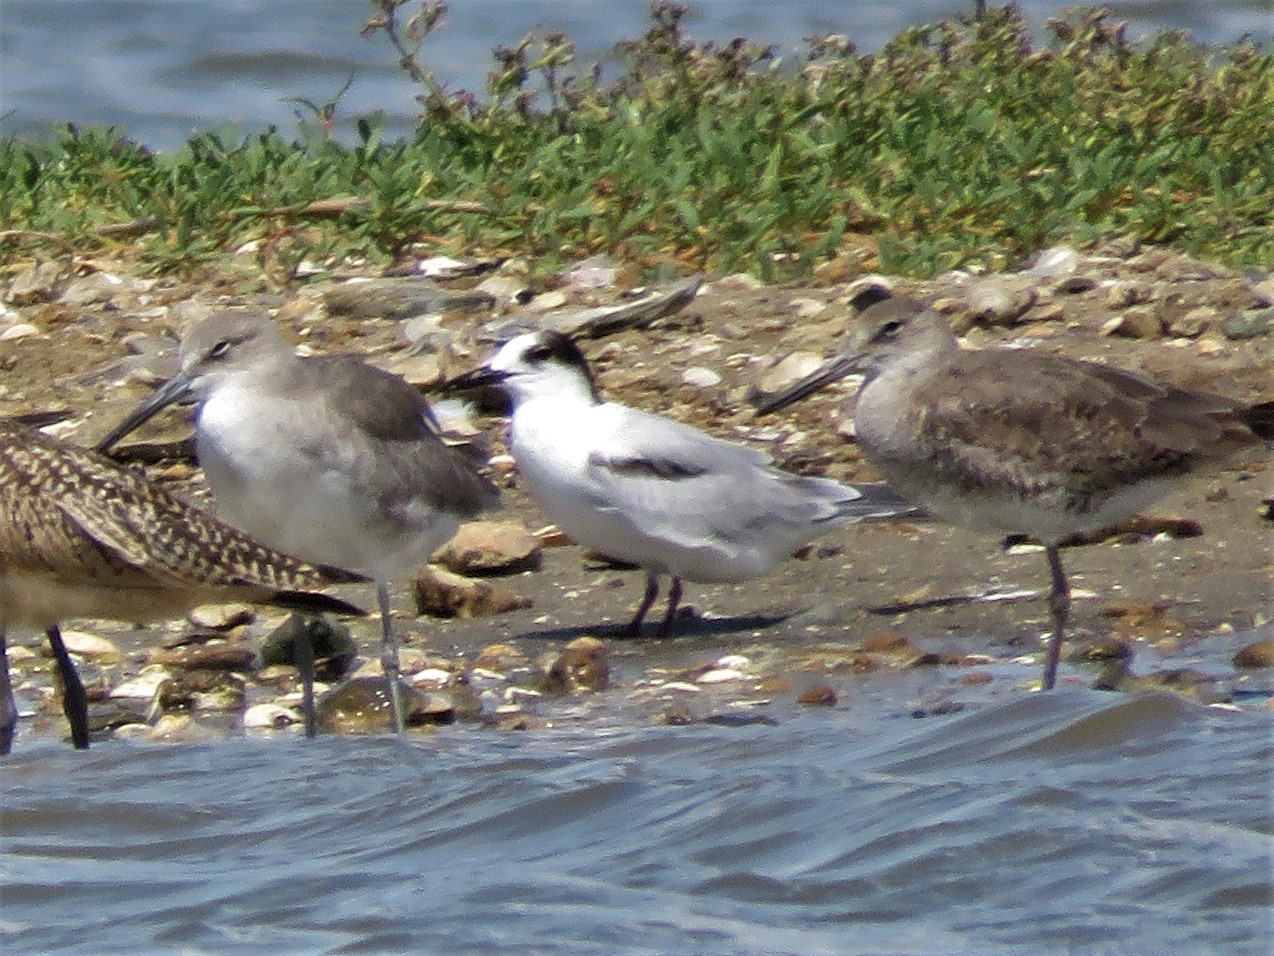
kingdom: Animalia
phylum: Chordata
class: Aves
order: Charadriiformes
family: Laridae
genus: Sterna
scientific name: Sterna hirundo
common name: Common tern
